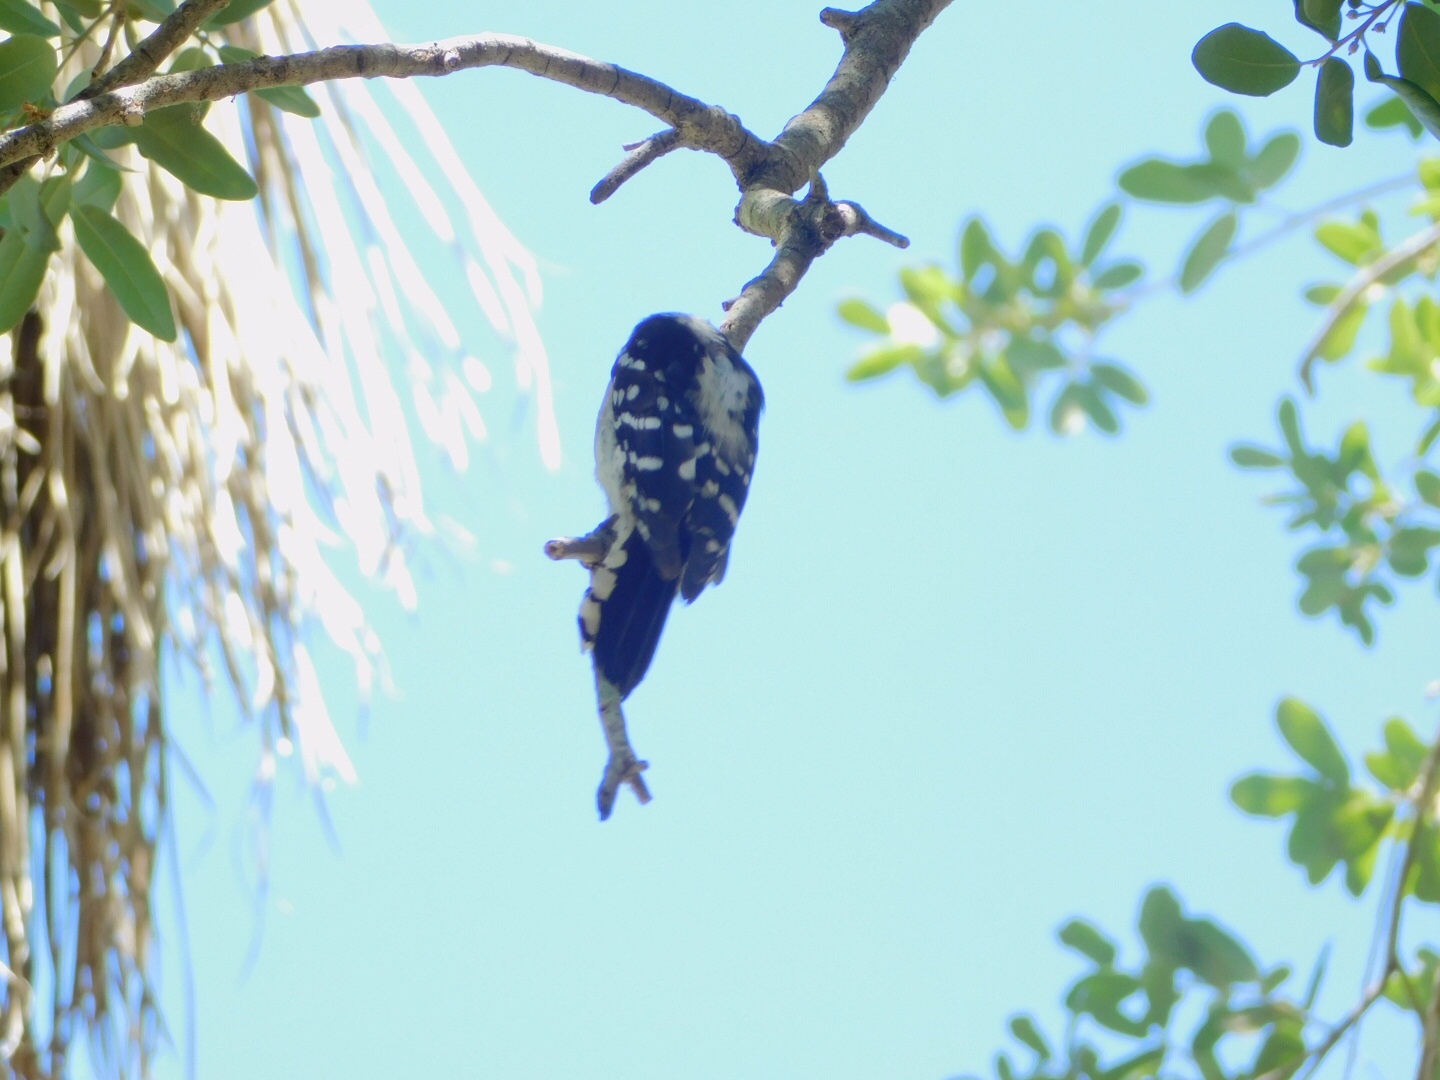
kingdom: Animalia
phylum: Chordata
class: Aves
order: Piciformes
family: Picidae
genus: Dryobates
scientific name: Dryobates pubescens
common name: Downy woodpecker
